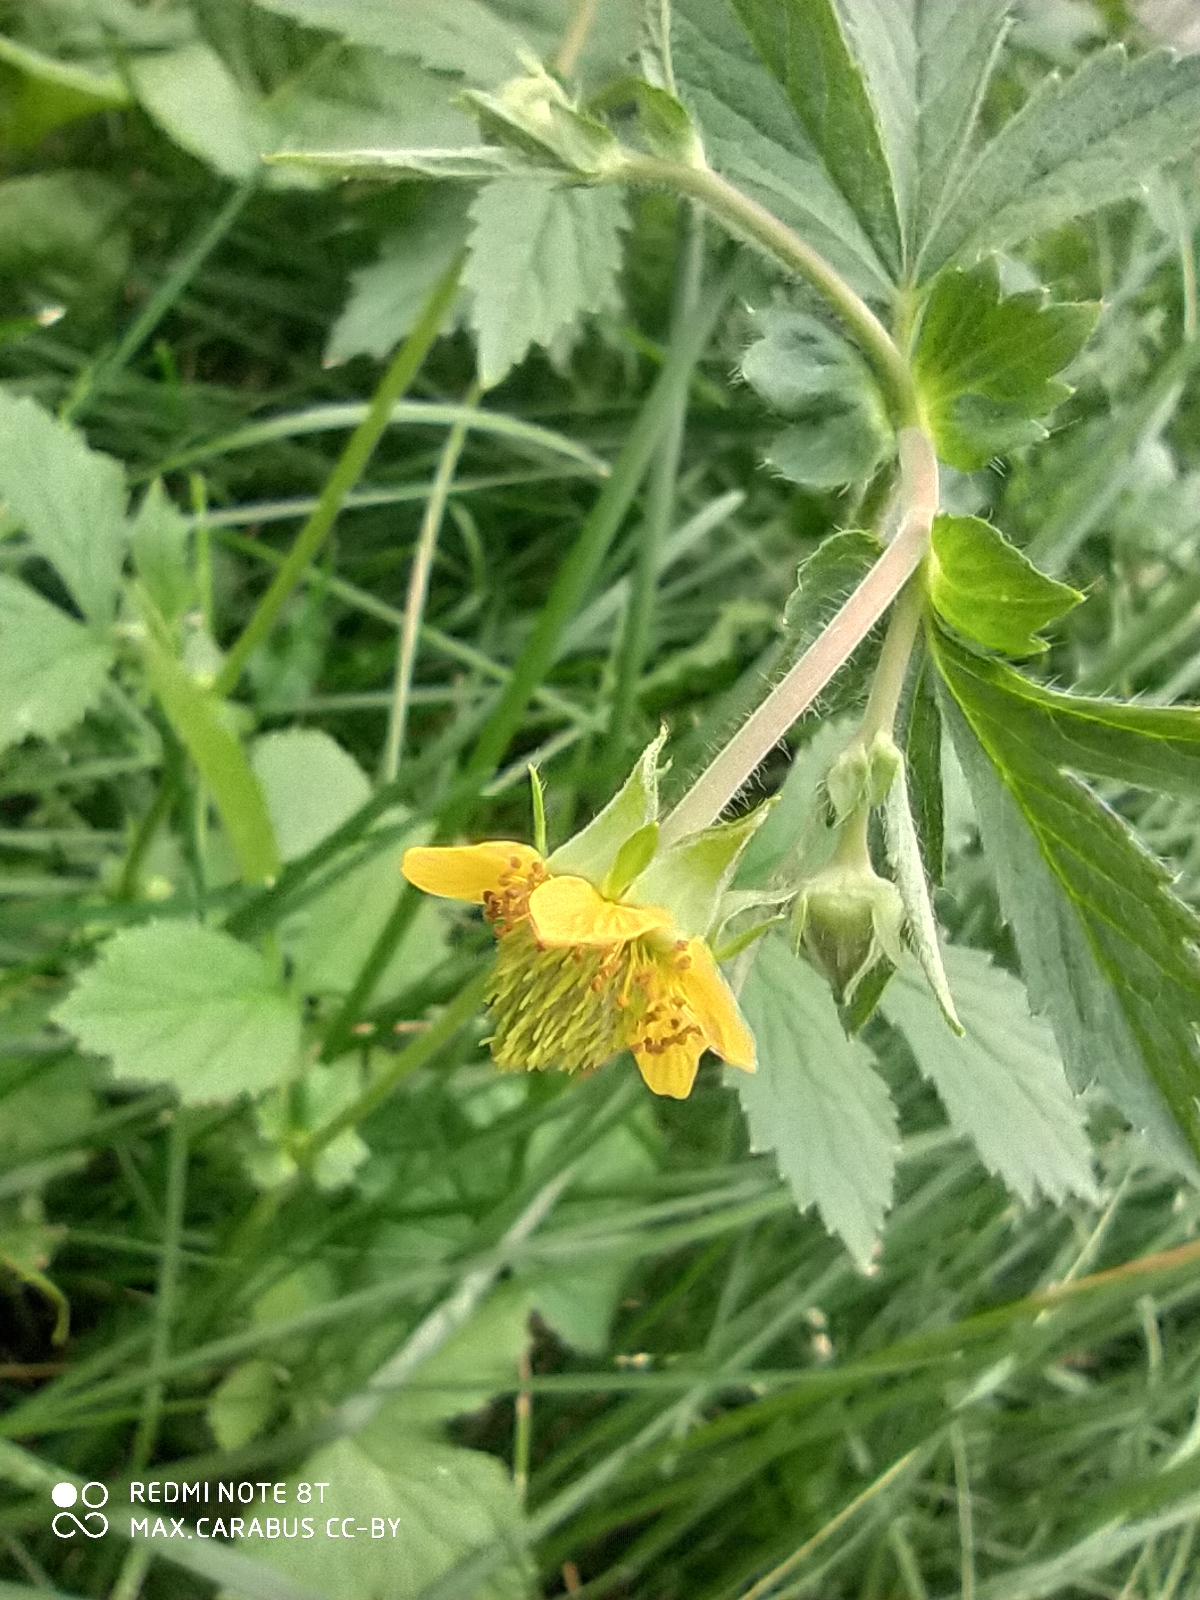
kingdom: Plantae
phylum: Tracheophyta
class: Magnoliopsida
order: Rosales
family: Rosaceae
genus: Geum
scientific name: Geum aleppicum
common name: Yellow avens
